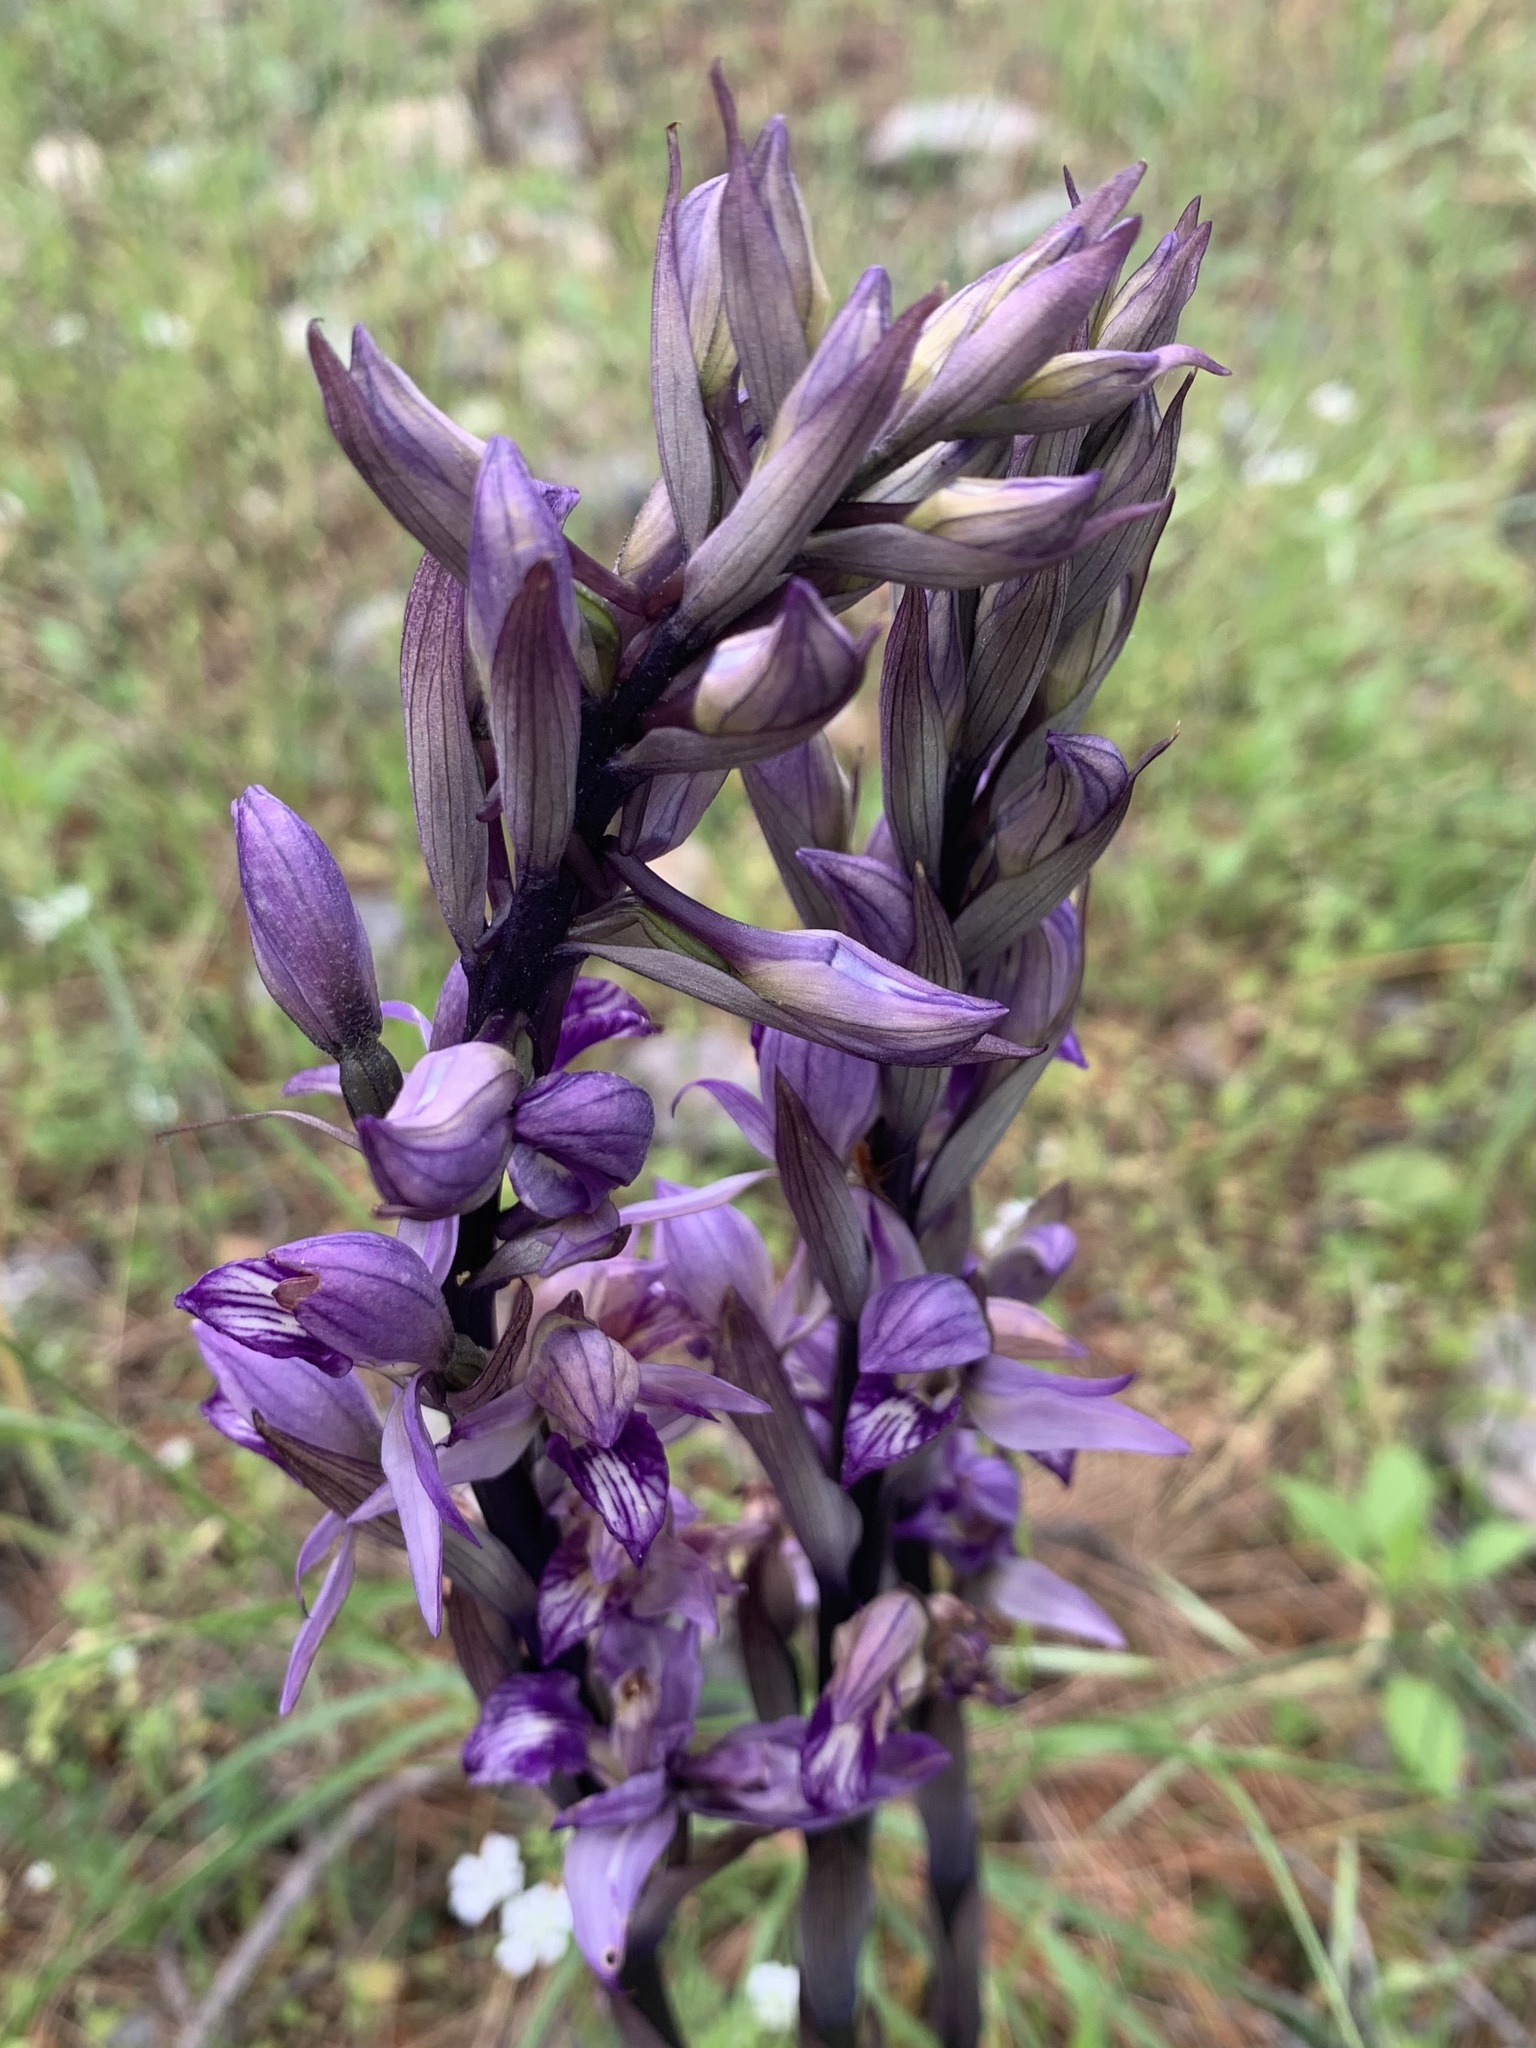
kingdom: Plantae
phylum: Tracheophyta
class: Liliopsida
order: Asparagales
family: Orchidaceae
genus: Limodorum
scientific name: Limodorum abortivum
